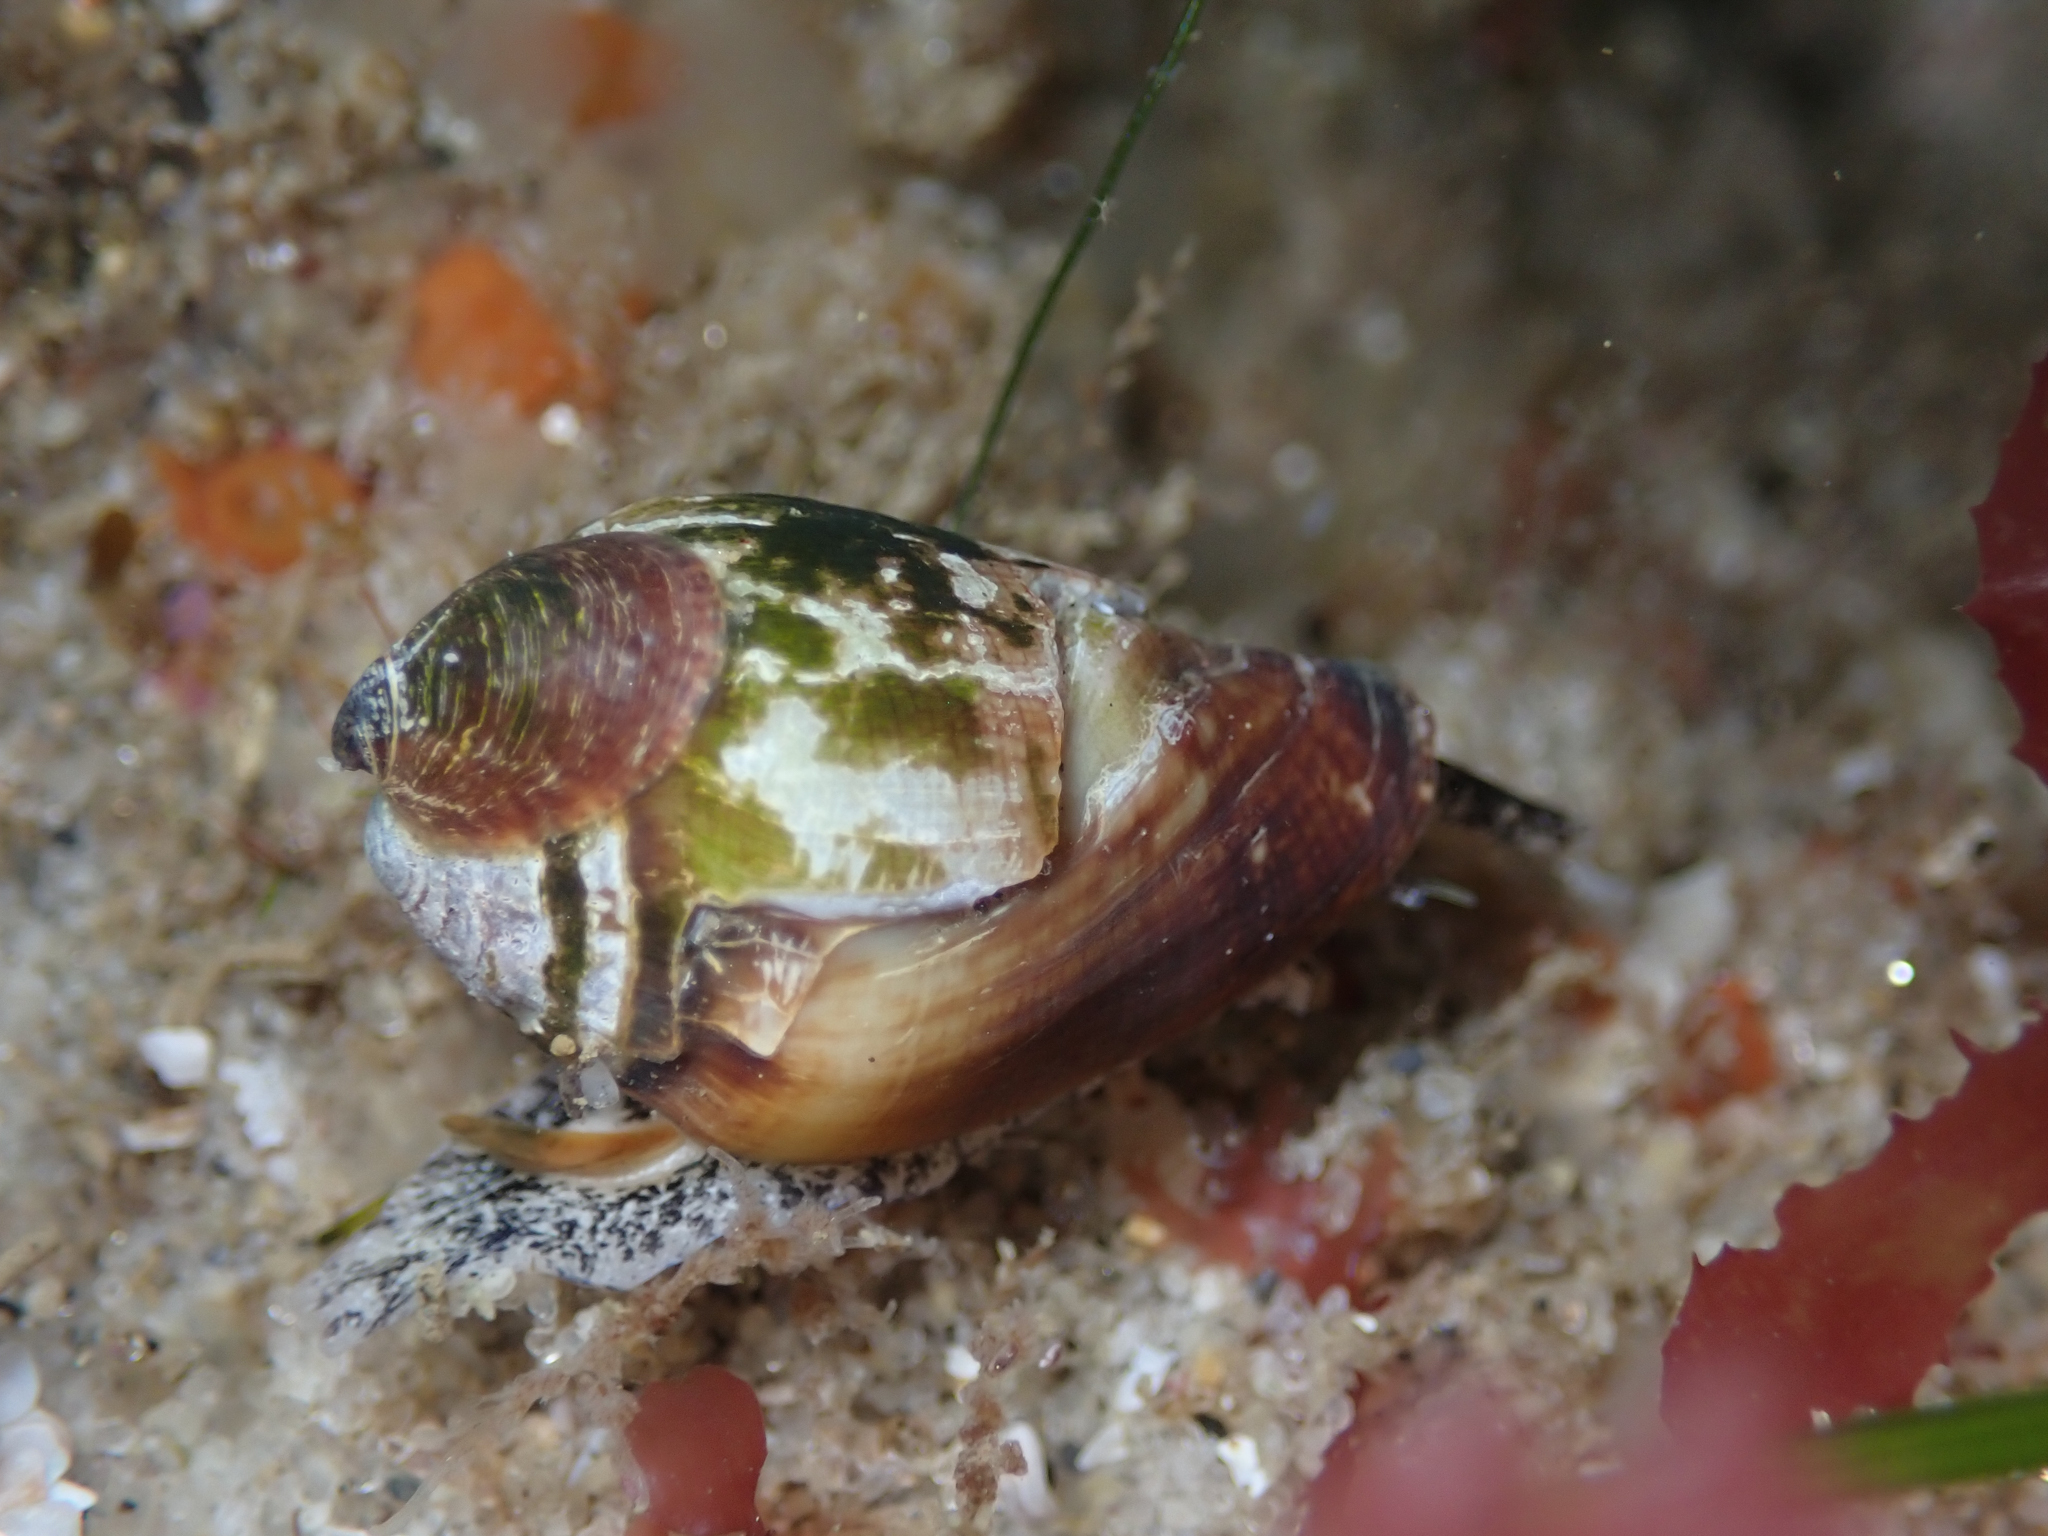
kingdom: Animalia
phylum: Mollusca
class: Gastropoda
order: Neogastropoda
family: Conidae
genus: Californiconus
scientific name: Californiconus californicus
